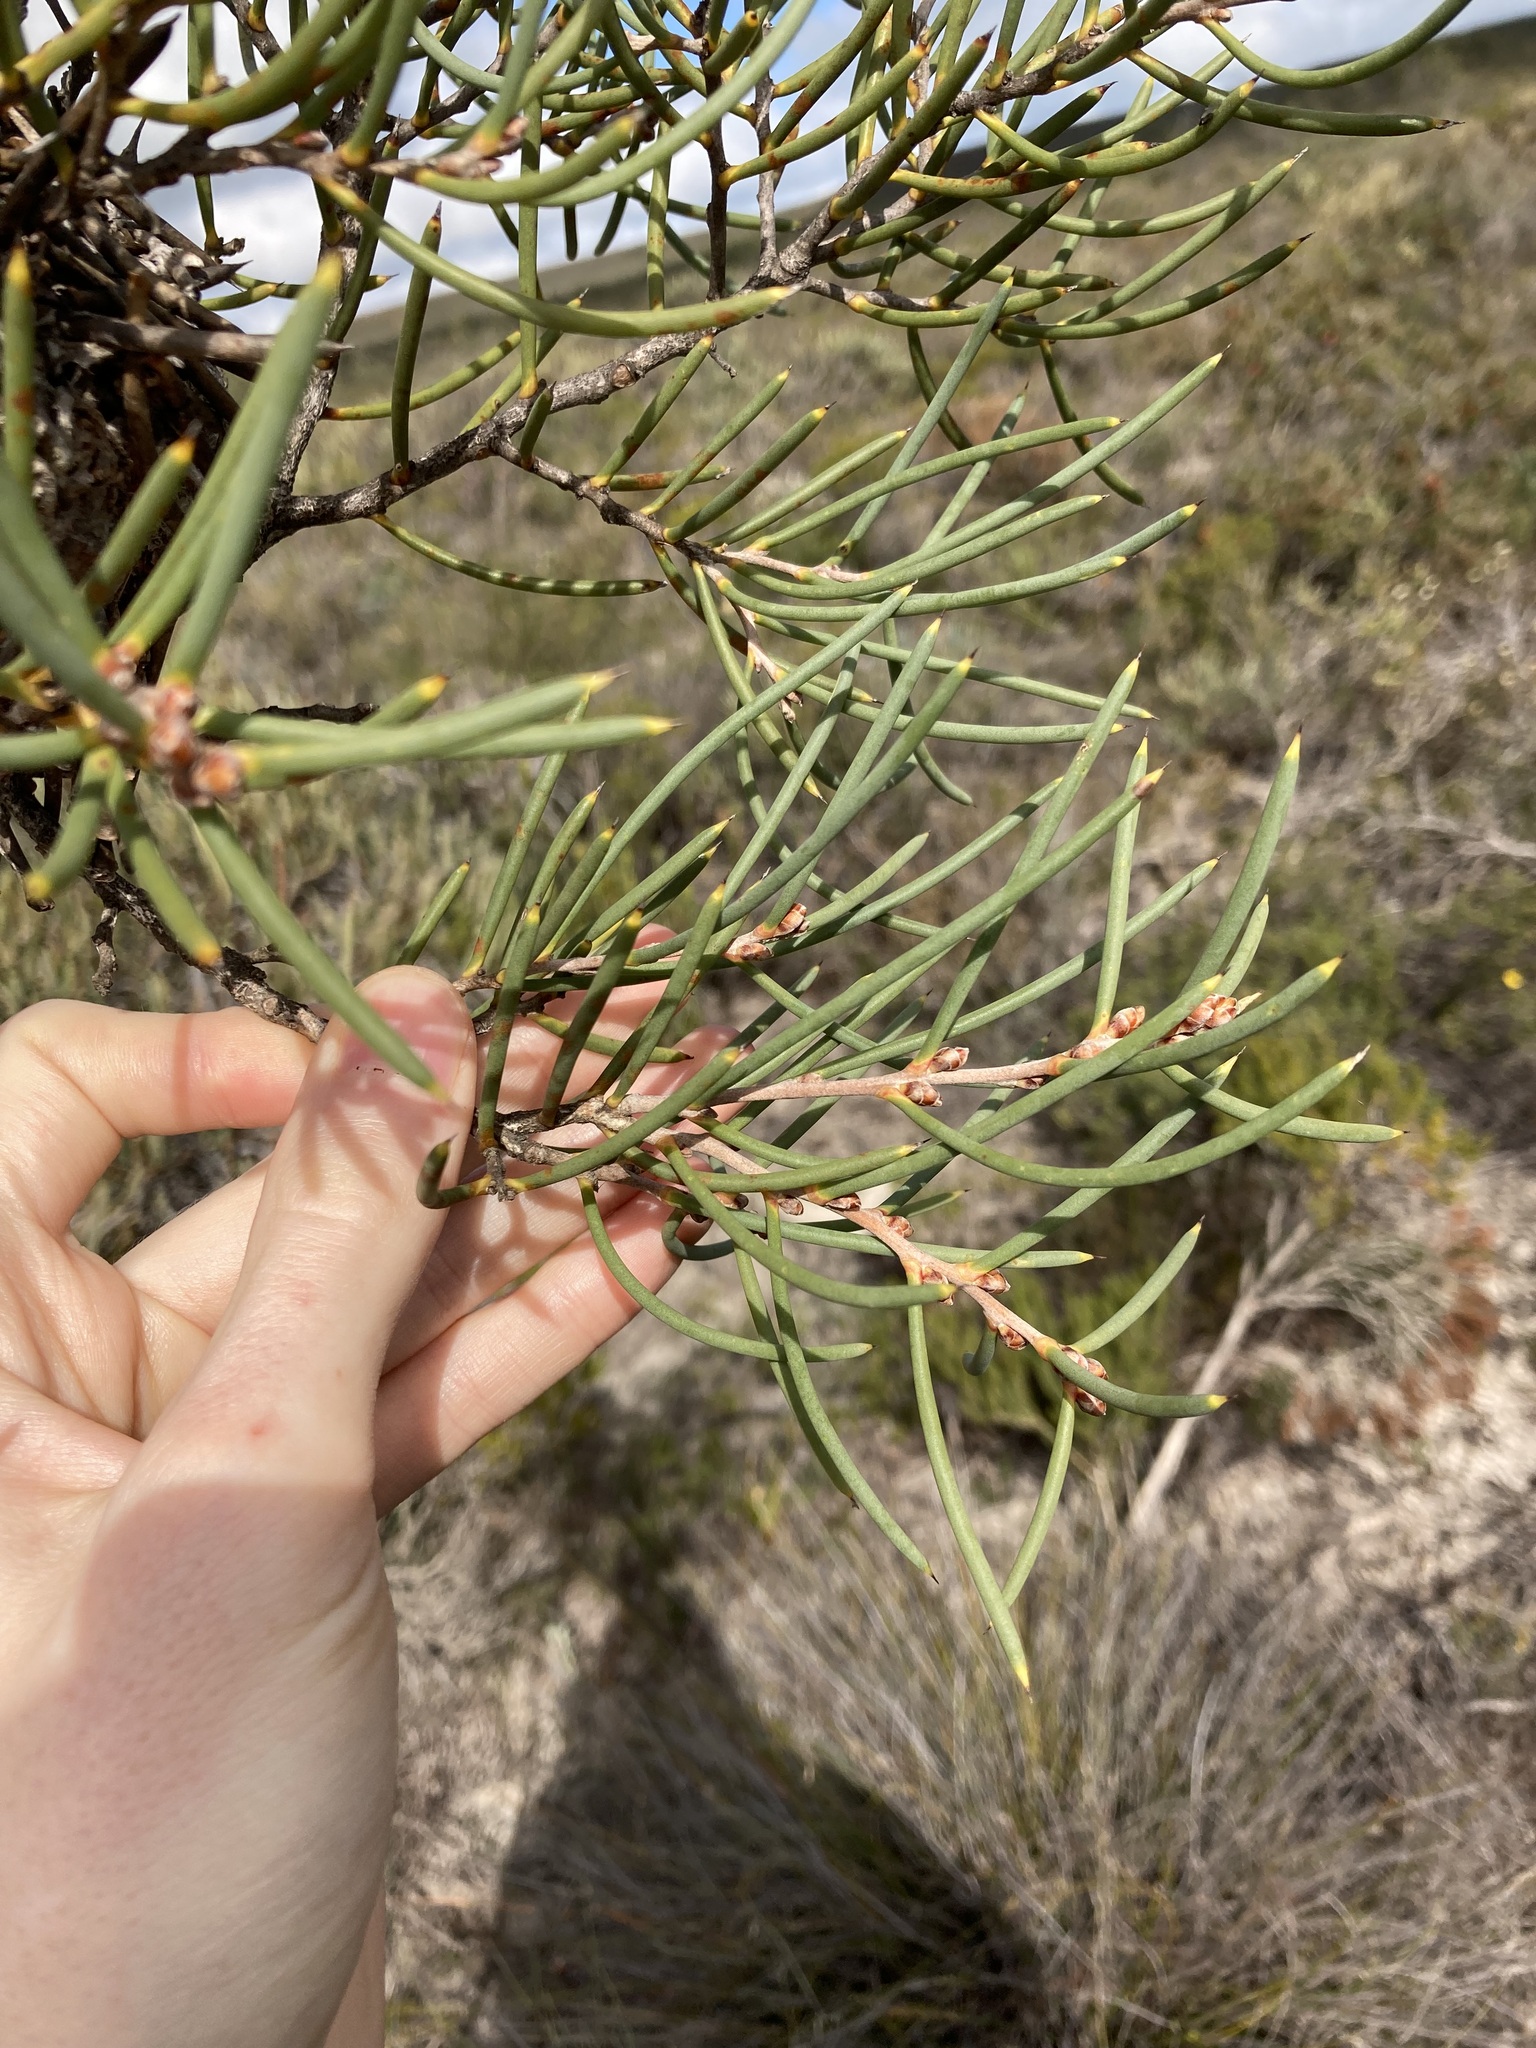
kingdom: Plantae
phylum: Tracheophyta
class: Magnoliopsida
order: Proteales
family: Proteaceae
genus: Hakea
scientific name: Hakea psilorrhyncha
